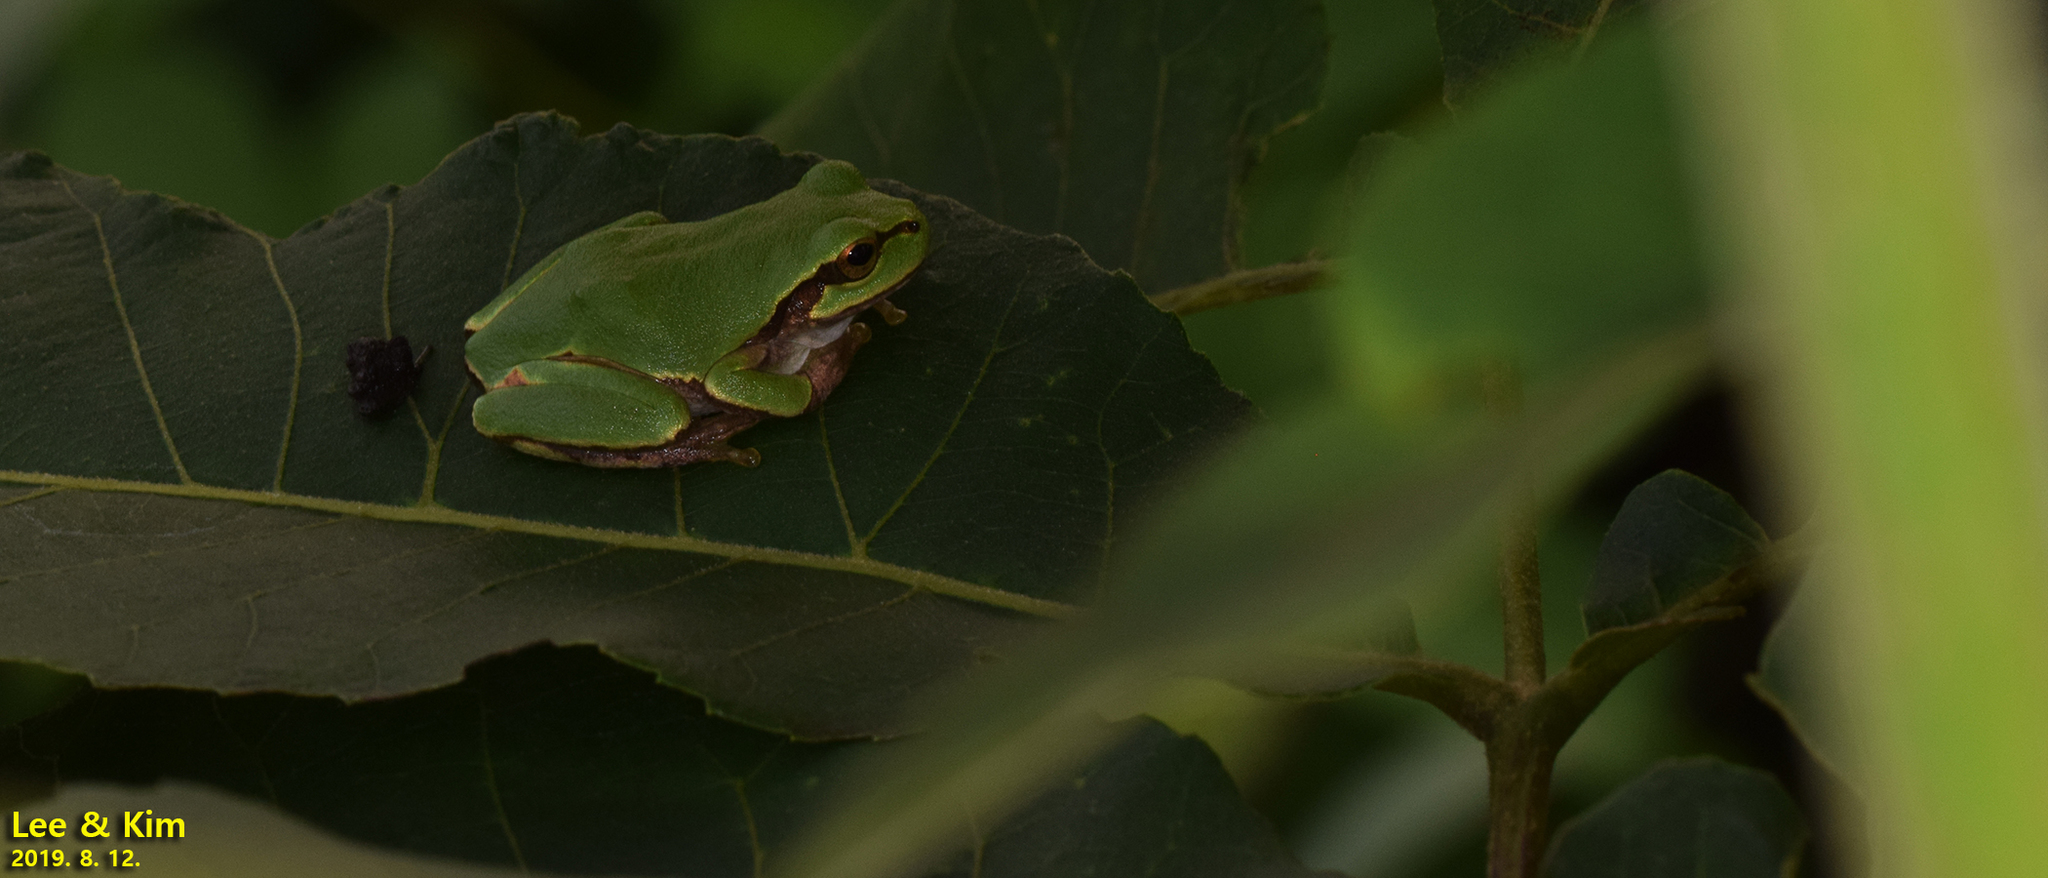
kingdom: Animalia
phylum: Chordata
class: Amphibia
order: Anura
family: Hylidae
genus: Dryophytes
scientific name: Dryophytes japonicus
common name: Japanese treefrog
